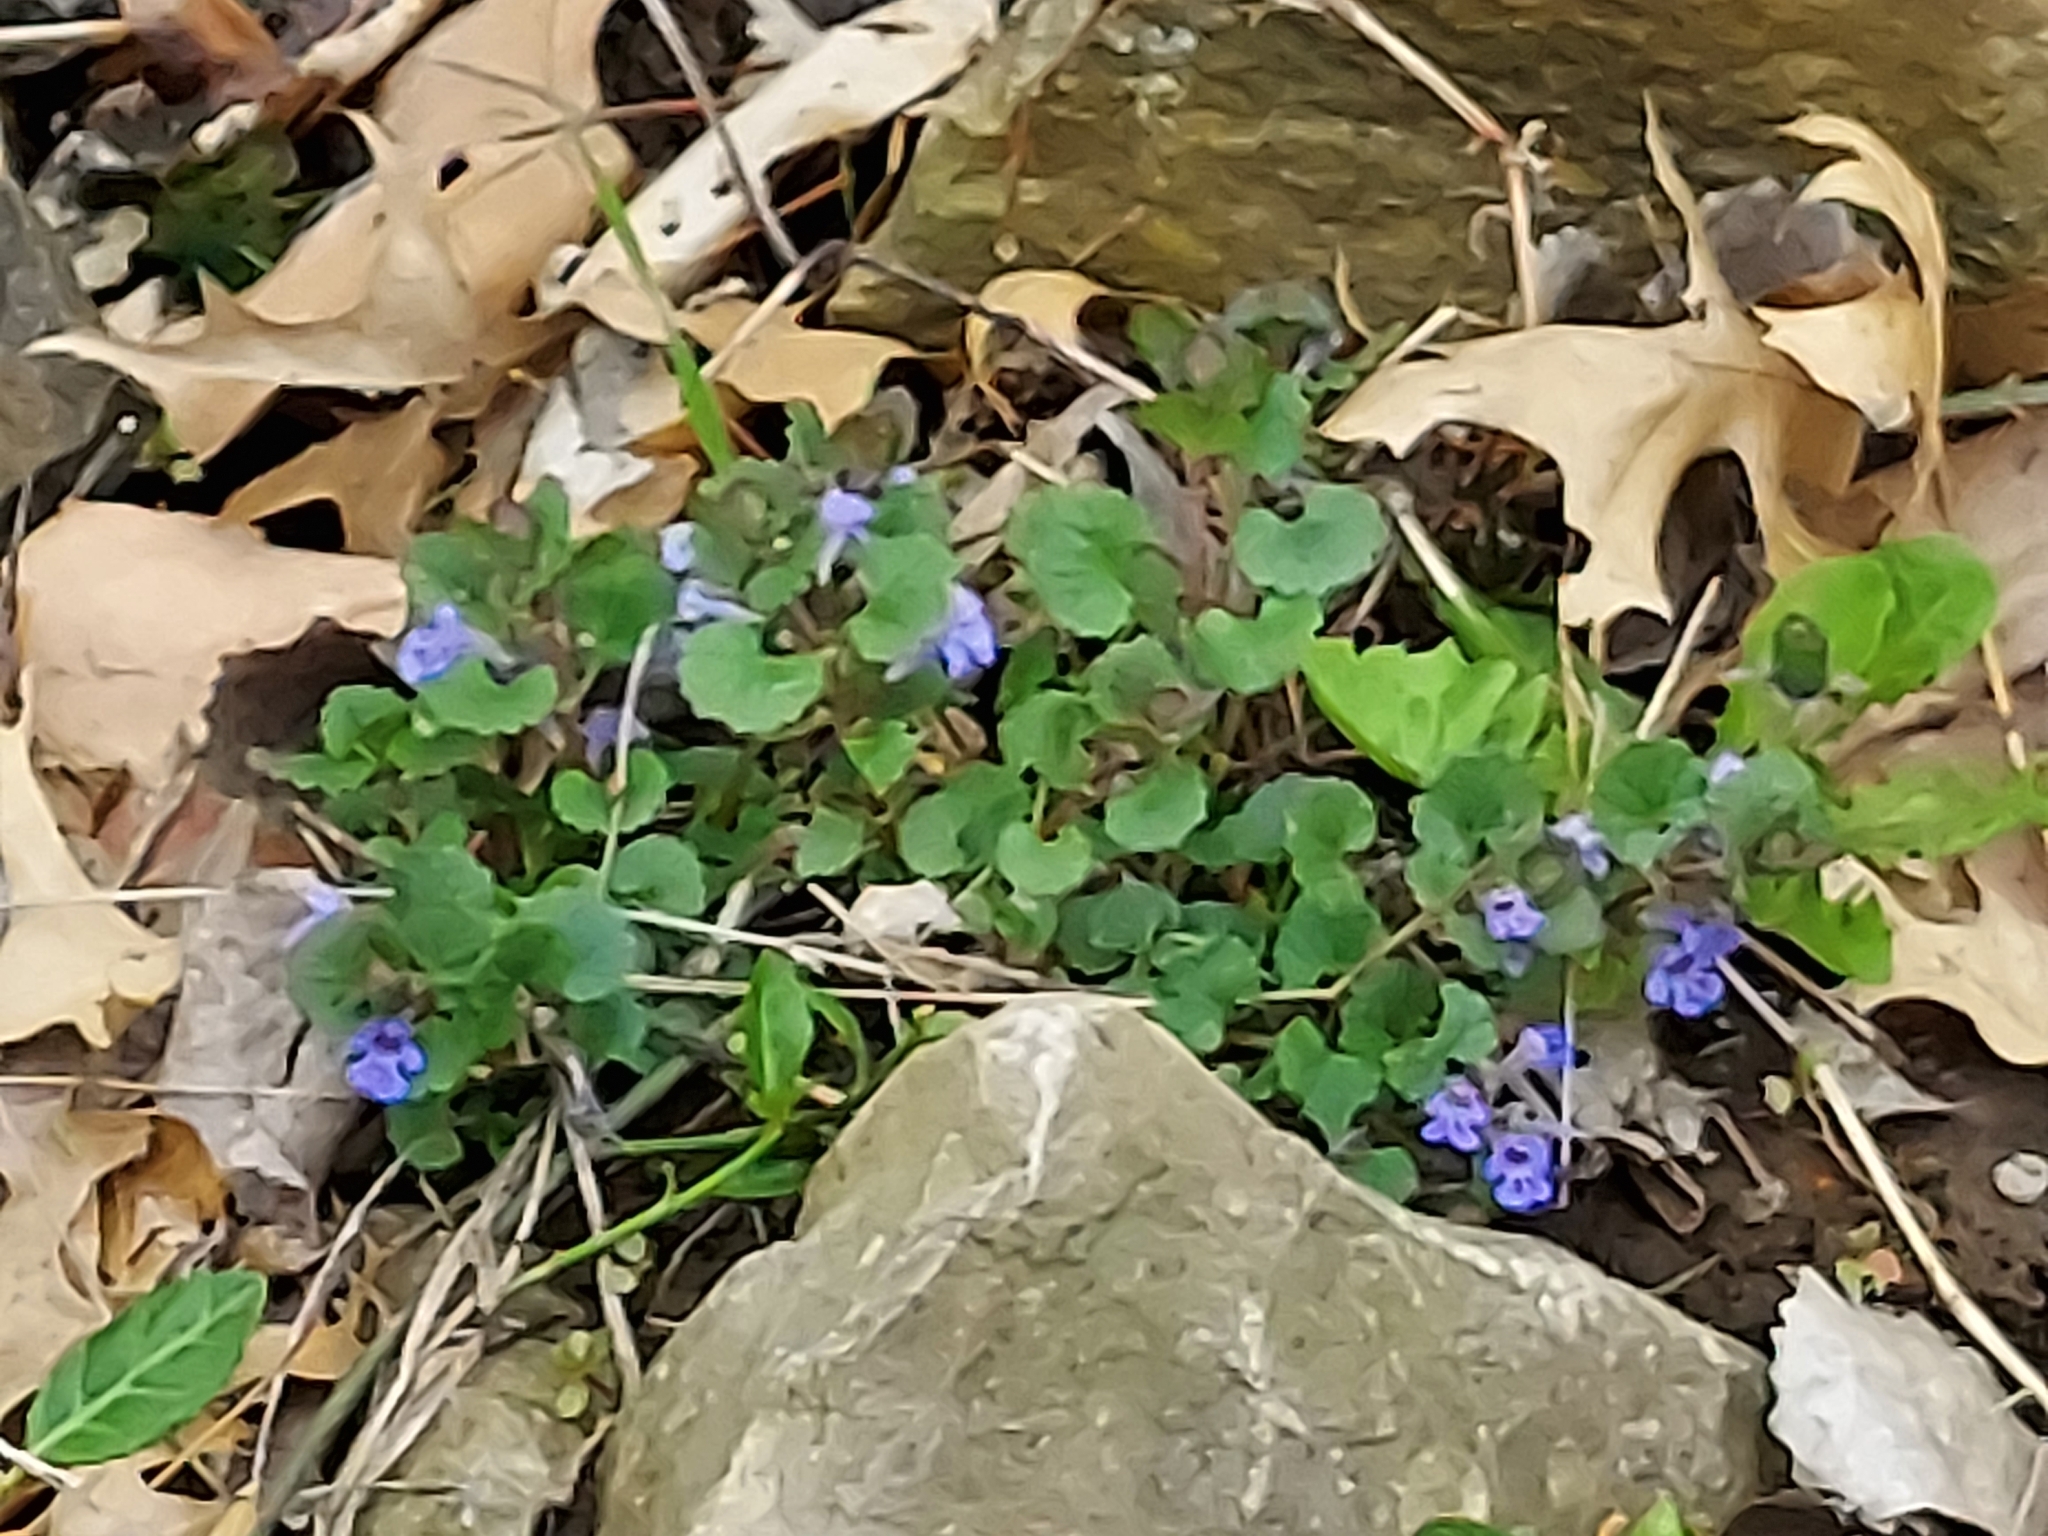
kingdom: Plantae
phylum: Tracheophyta
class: Magnoliopsida
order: Lamiales
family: Lamiaceae
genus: Glechoma
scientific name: Glechoma hederacea
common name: Ground ivy
